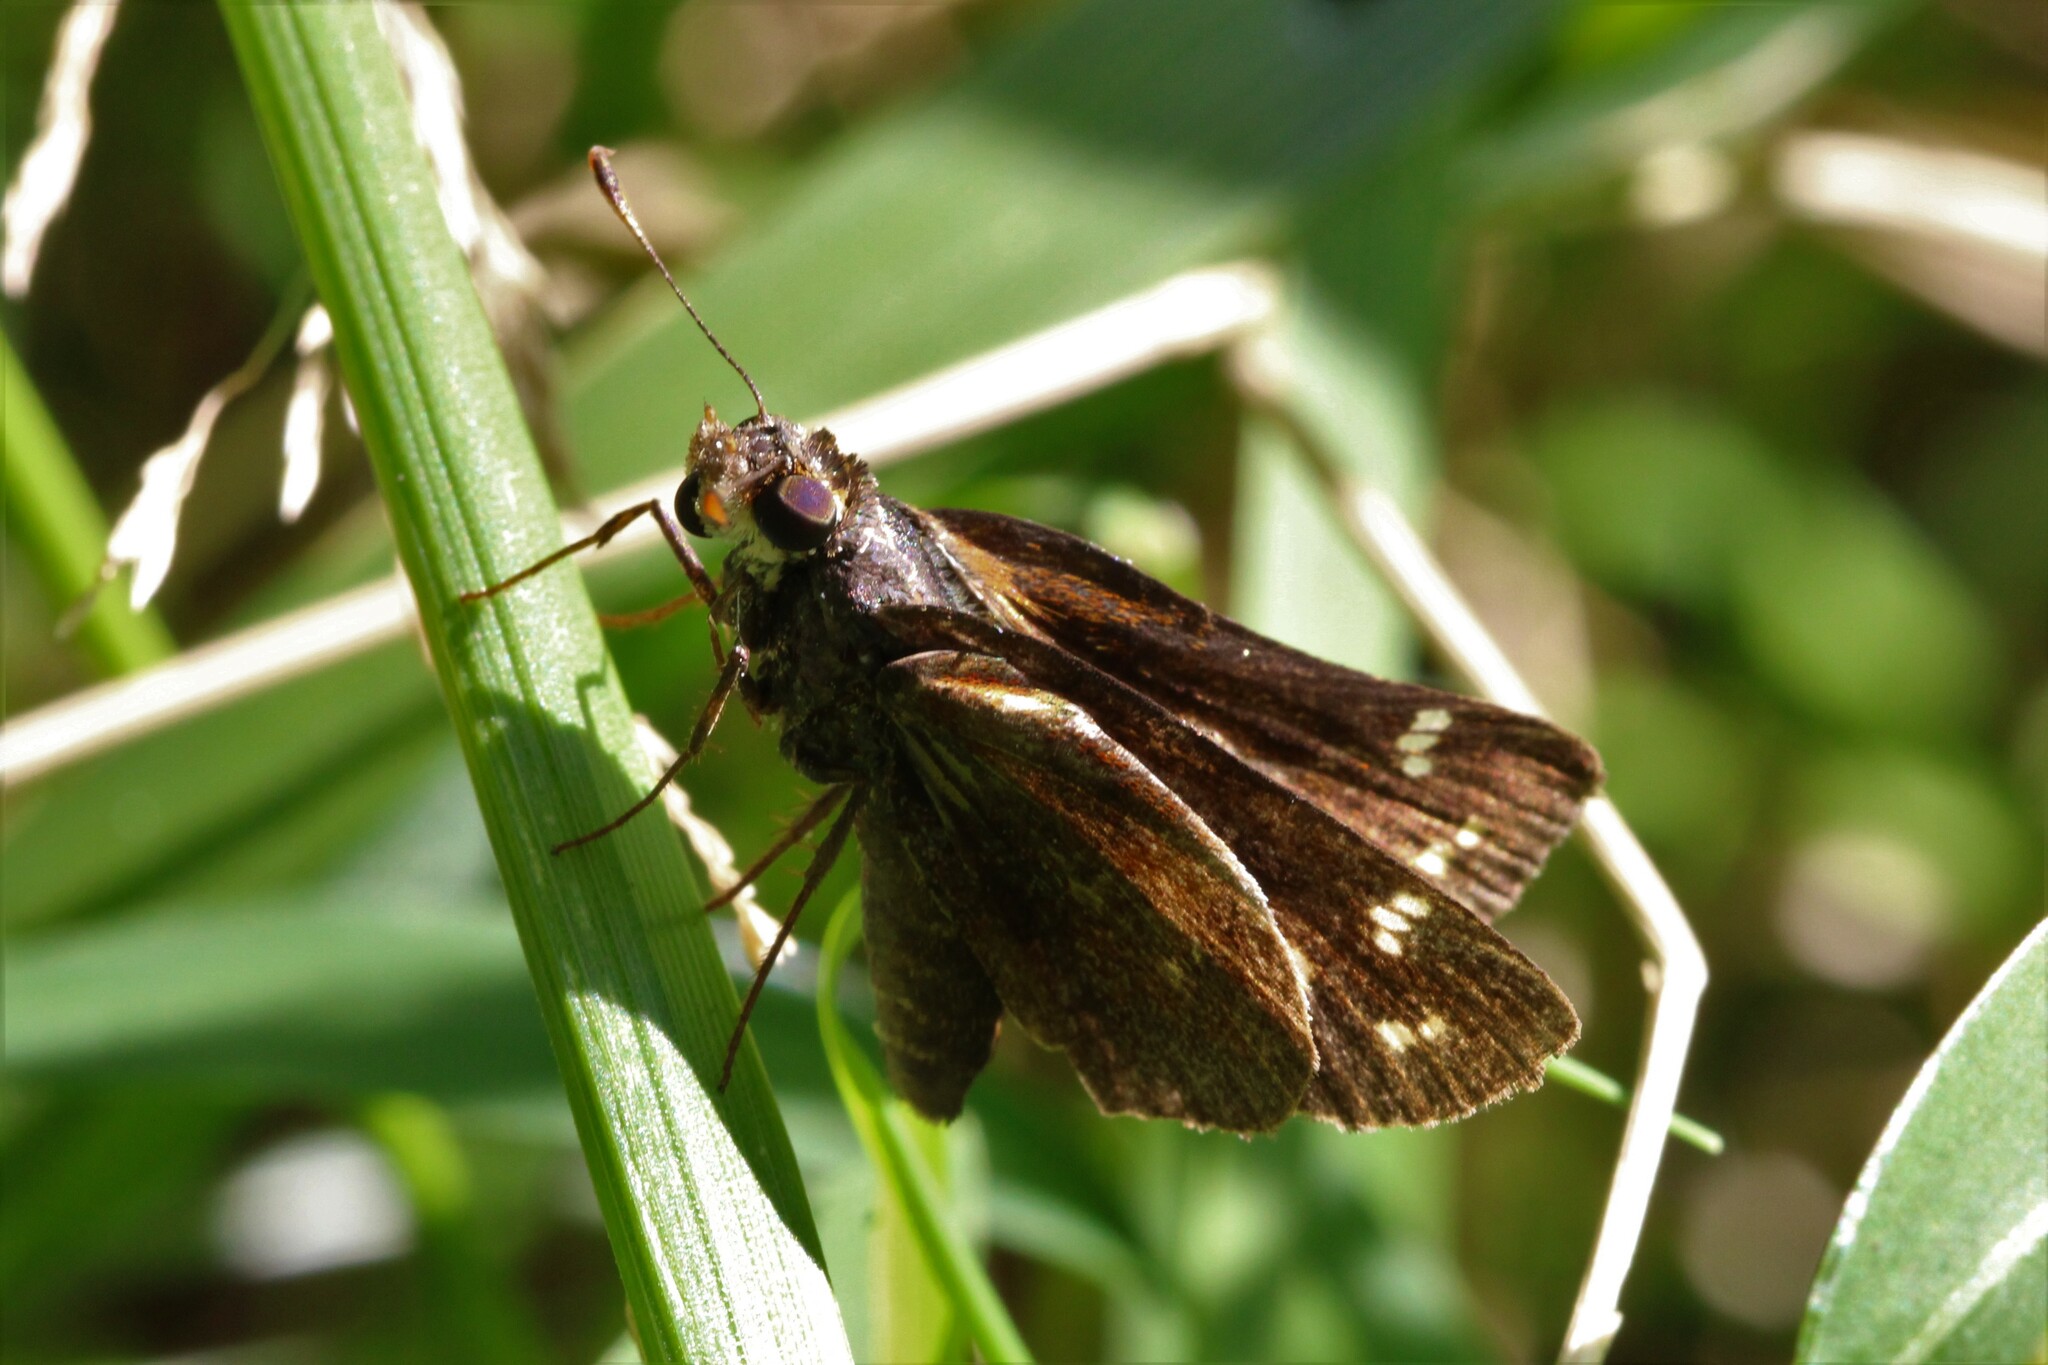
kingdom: Animalia
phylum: Arthropoda
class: Insecta
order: Lepidoptera
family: Hesperiidae
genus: Lon
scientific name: Lon zabulon
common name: Zabulon skipper
